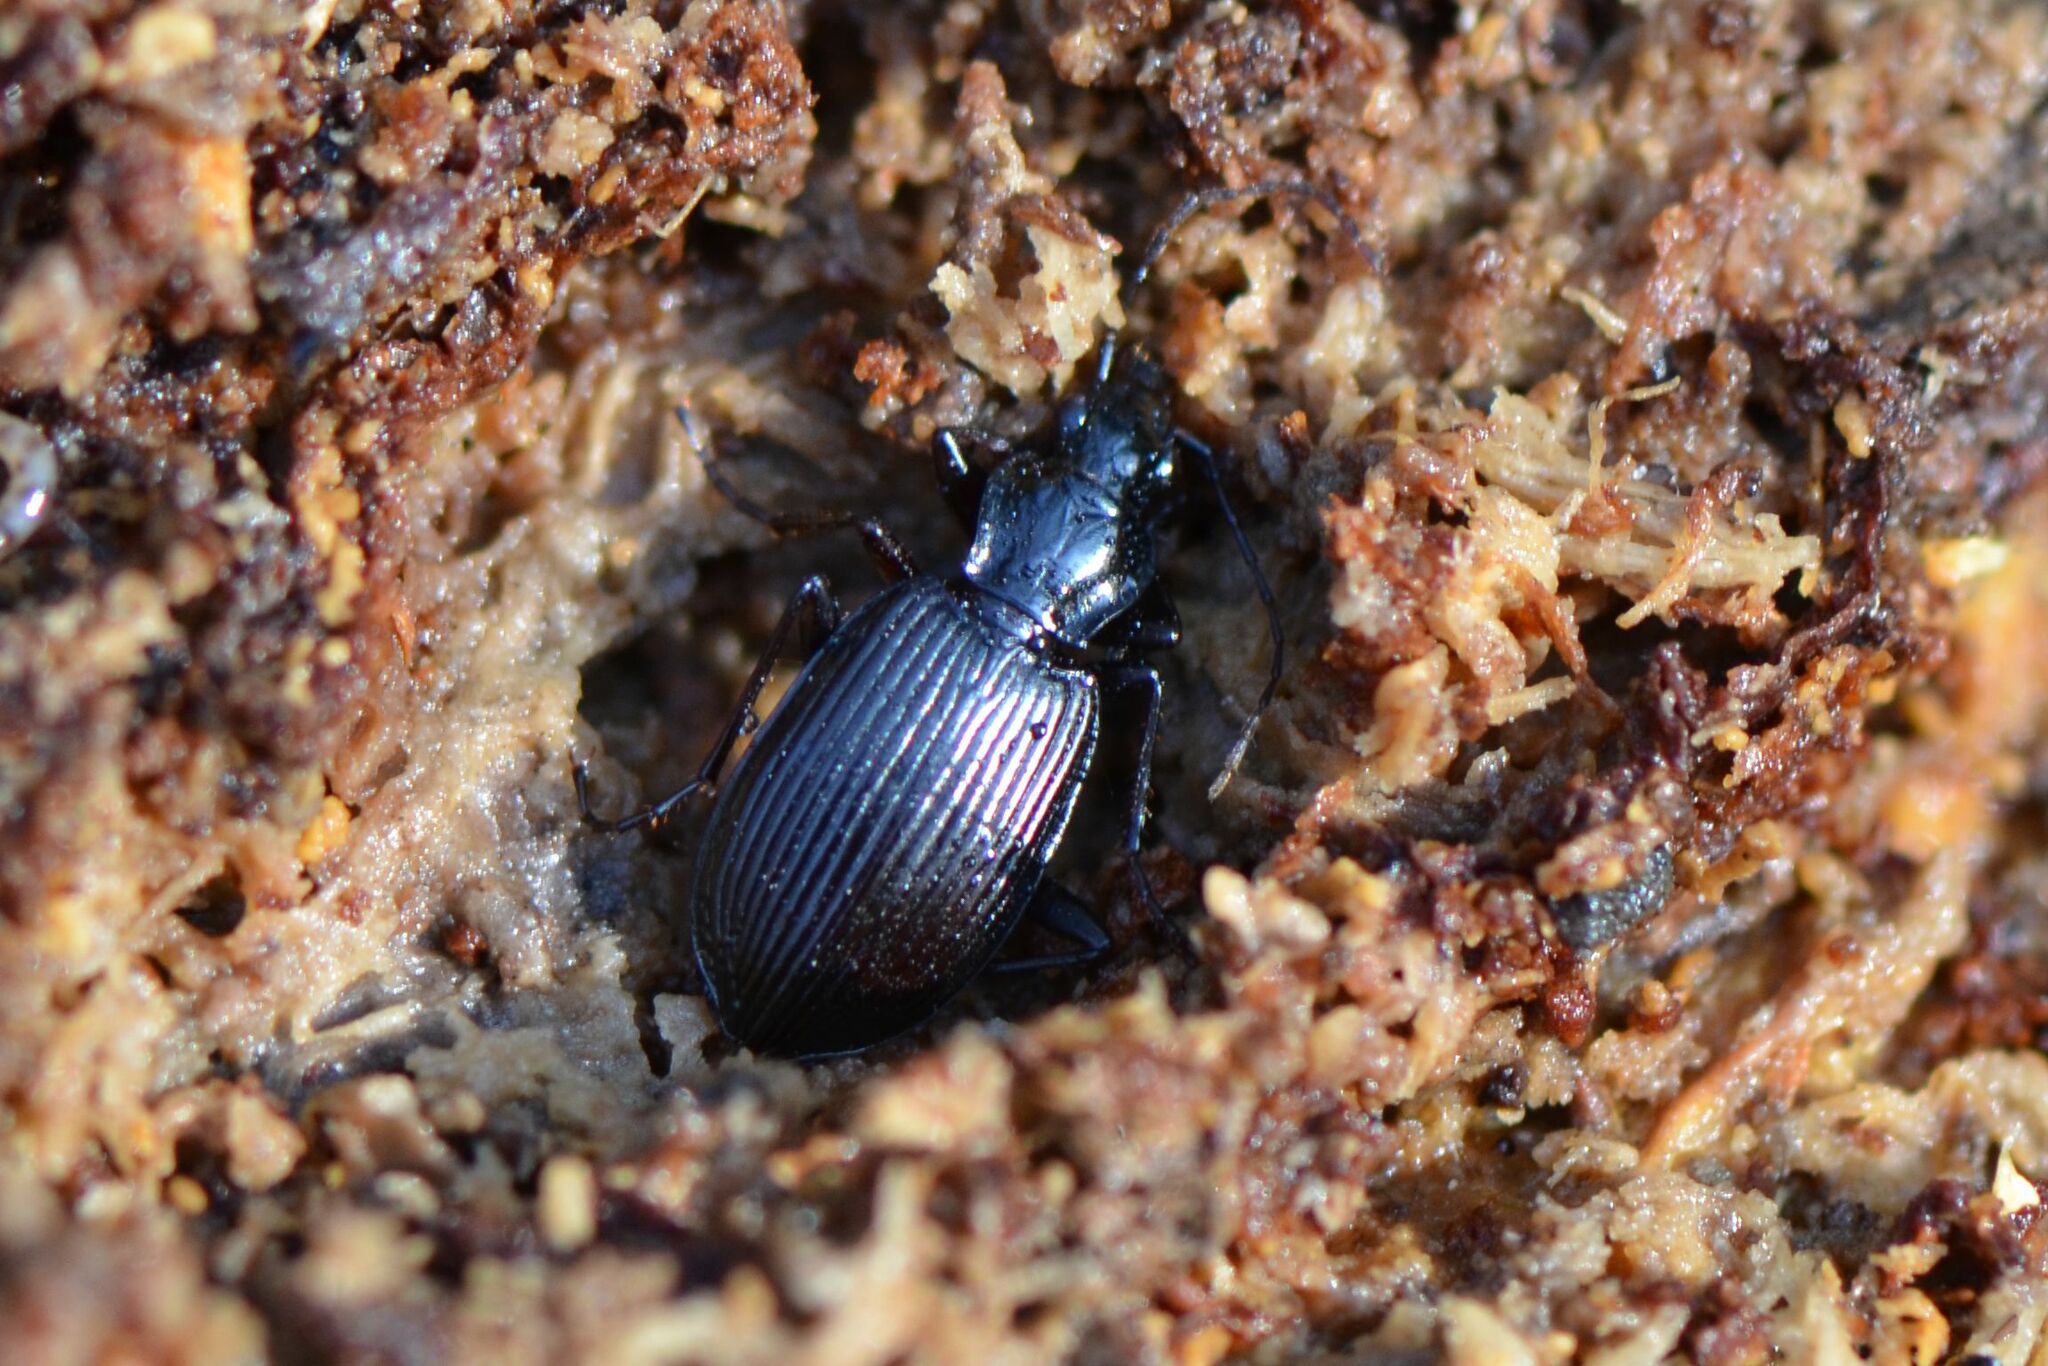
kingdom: Animalia
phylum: Arthropoda
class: Insecta
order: Coleoptera
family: Carabidae
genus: Platynus
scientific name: Platynus assimilis
